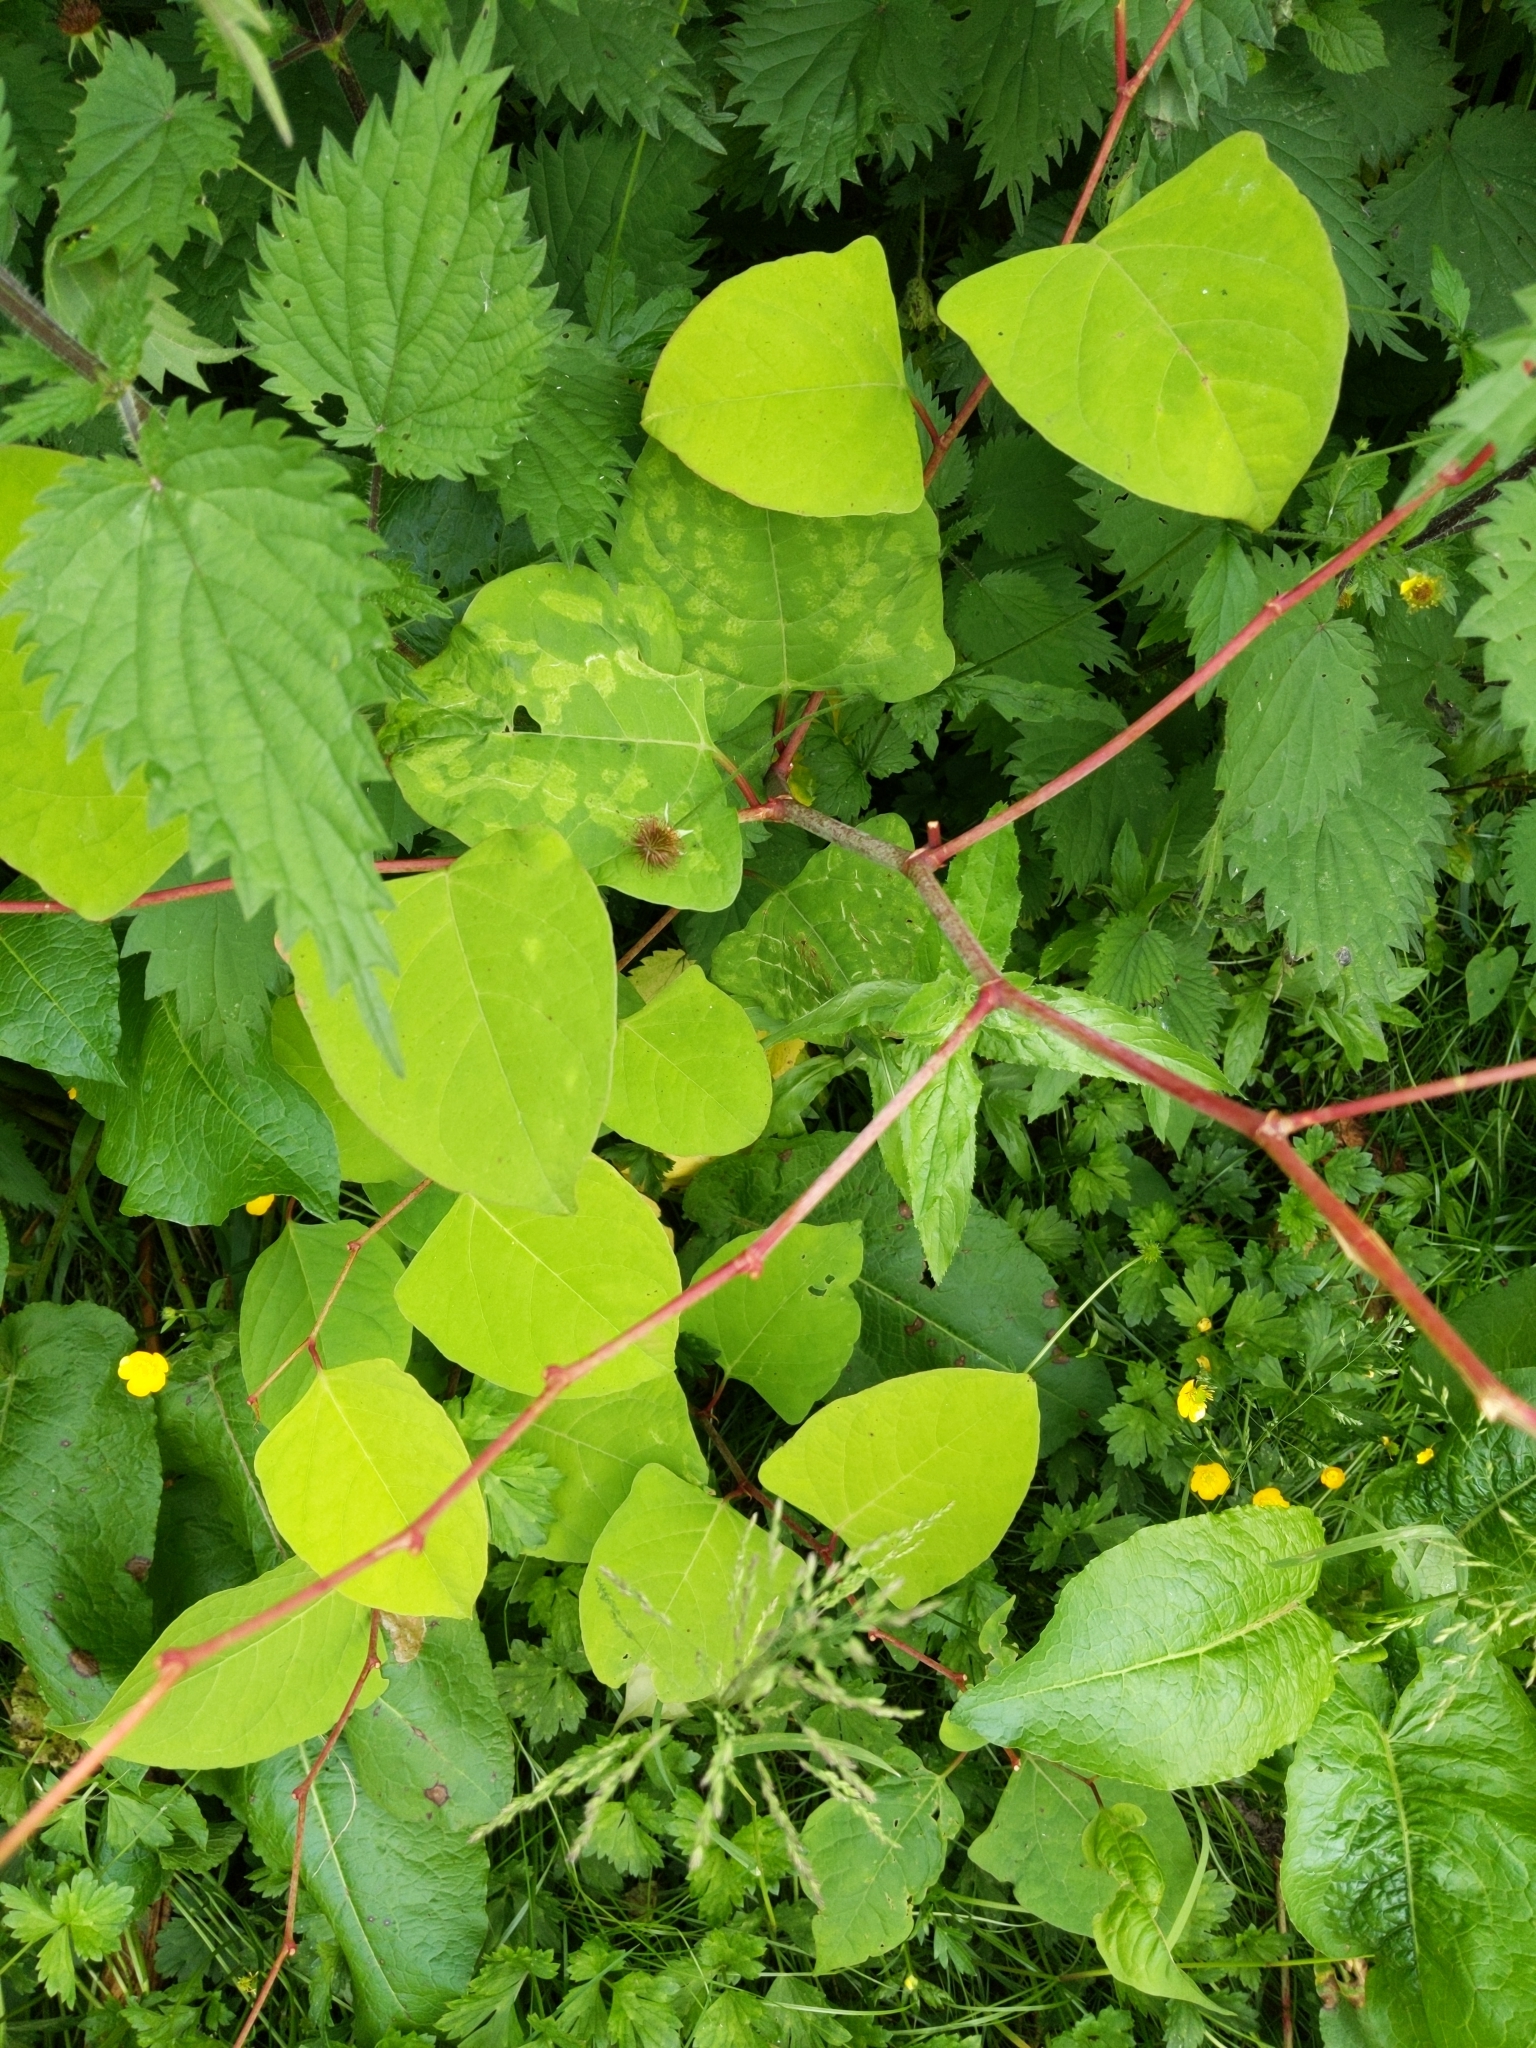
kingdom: Plantae
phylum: Tracheophyta
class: Magnoliopsida
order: Caryophyllales
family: Polygonaceae
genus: Reynoutria
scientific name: Reynoutria japonica
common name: Japanese knotweed
